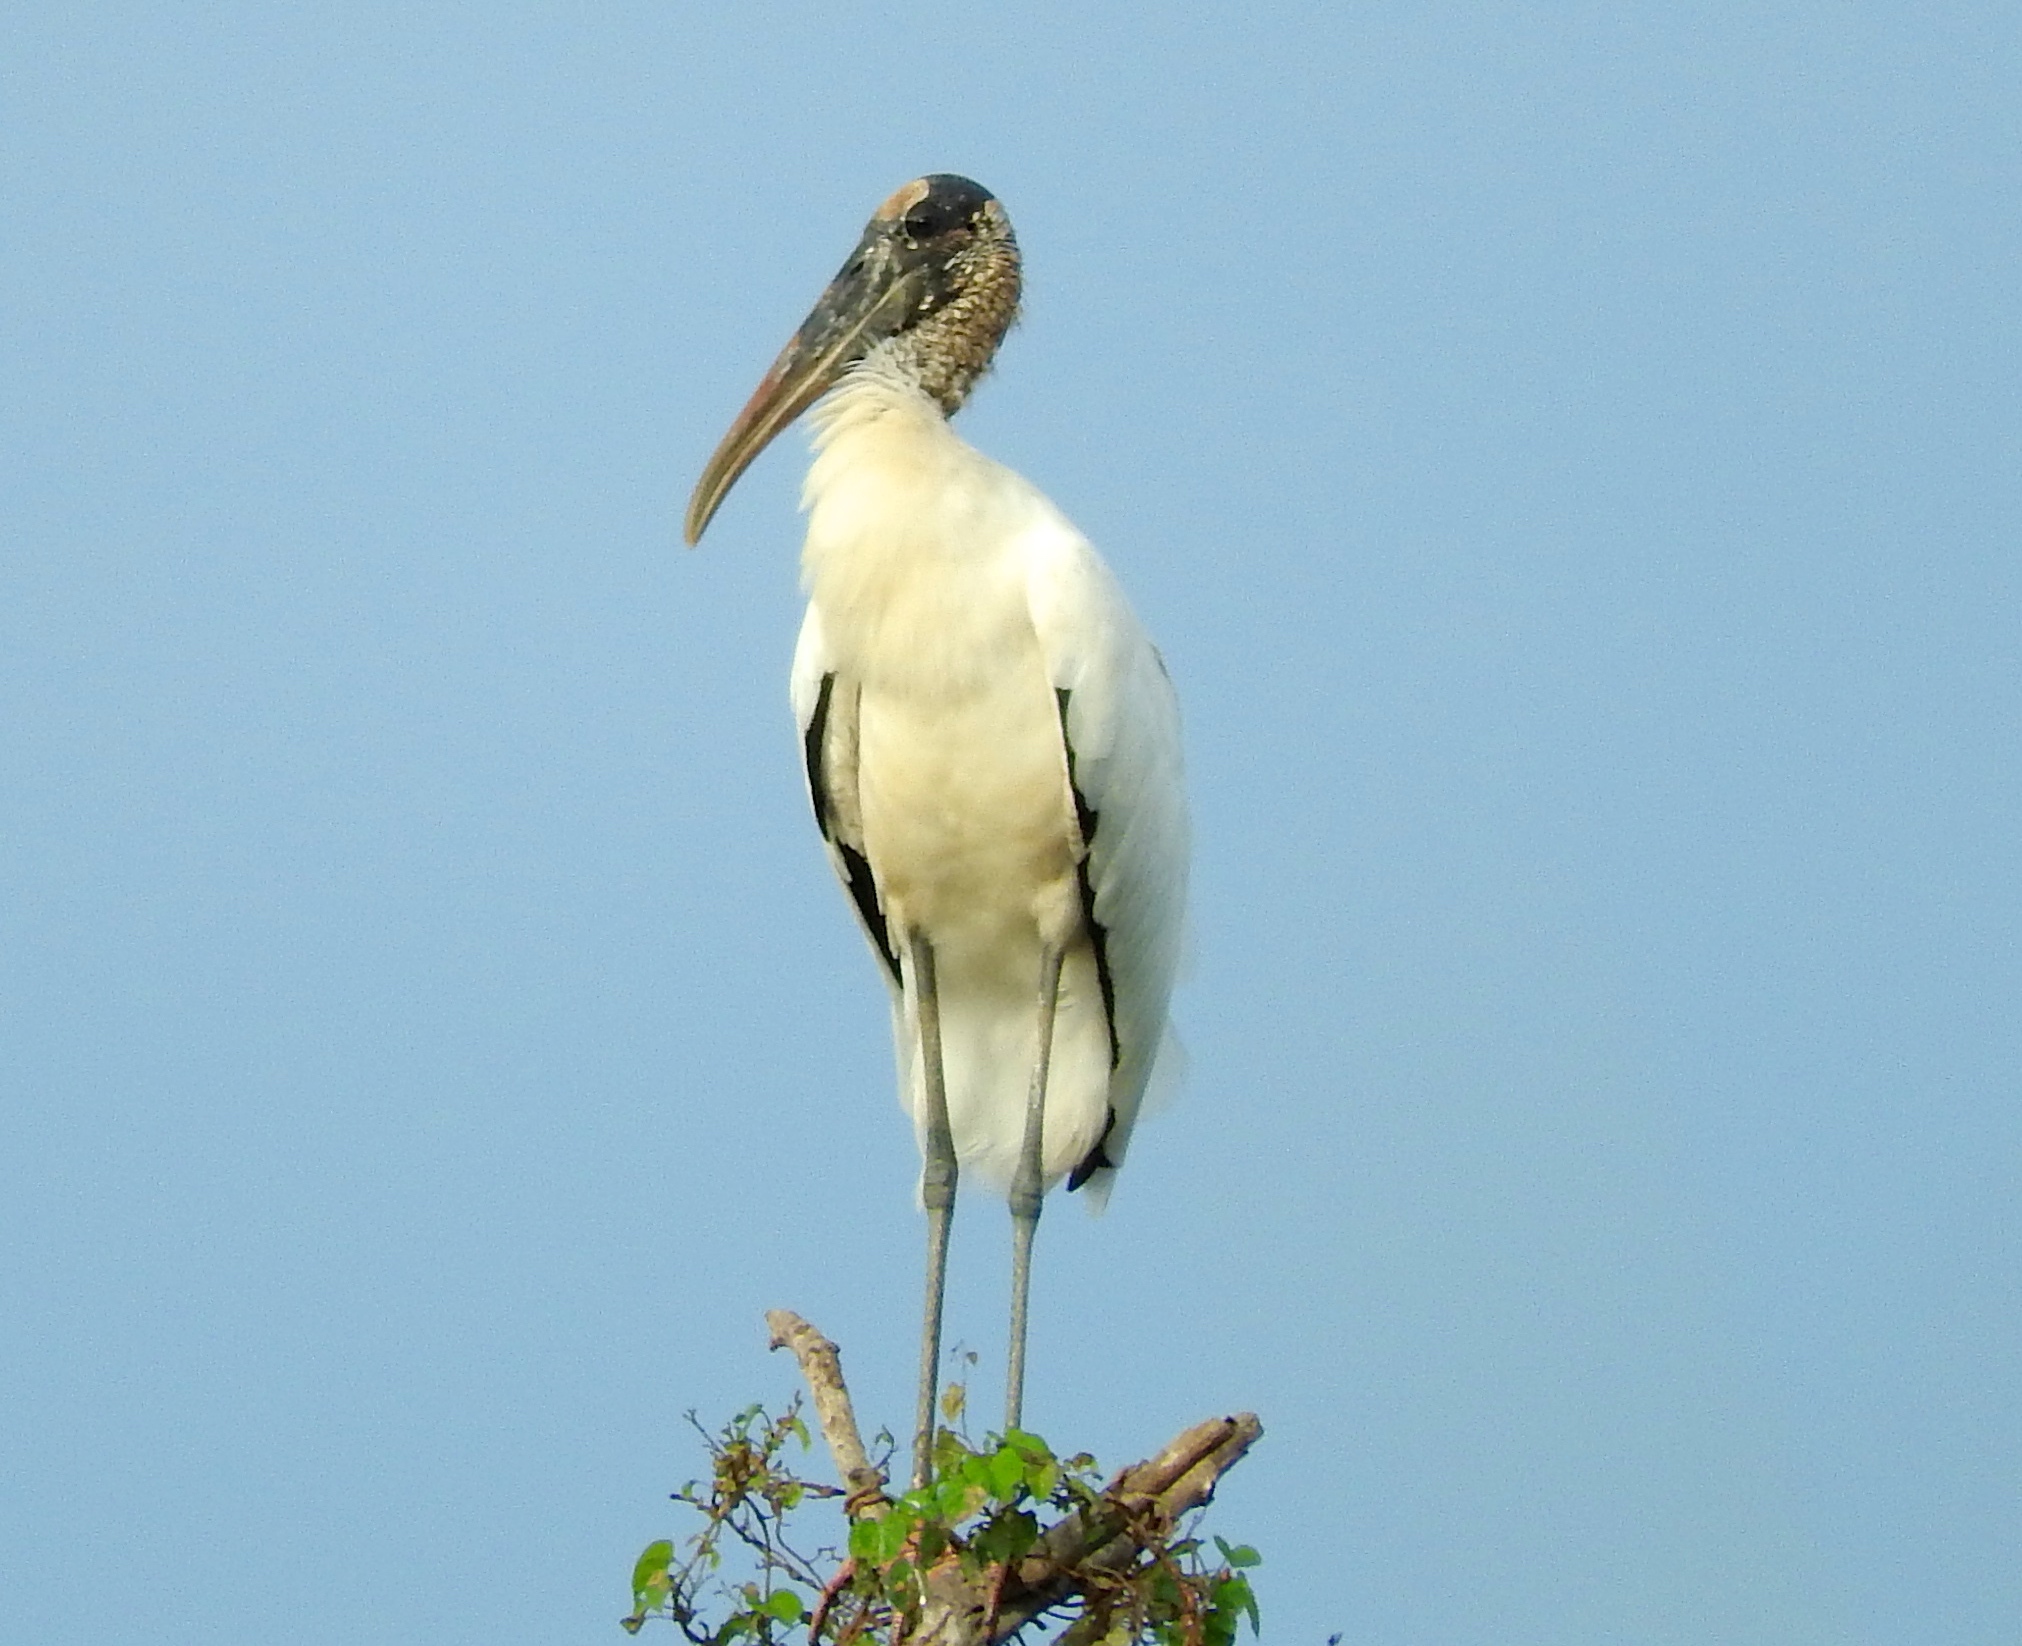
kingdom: Animalia
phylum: Chordata
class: Aves
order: Ciconiiformes
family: Ciconiidae
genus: Mycteria
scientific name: Mycteria americana
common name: Wood stork
